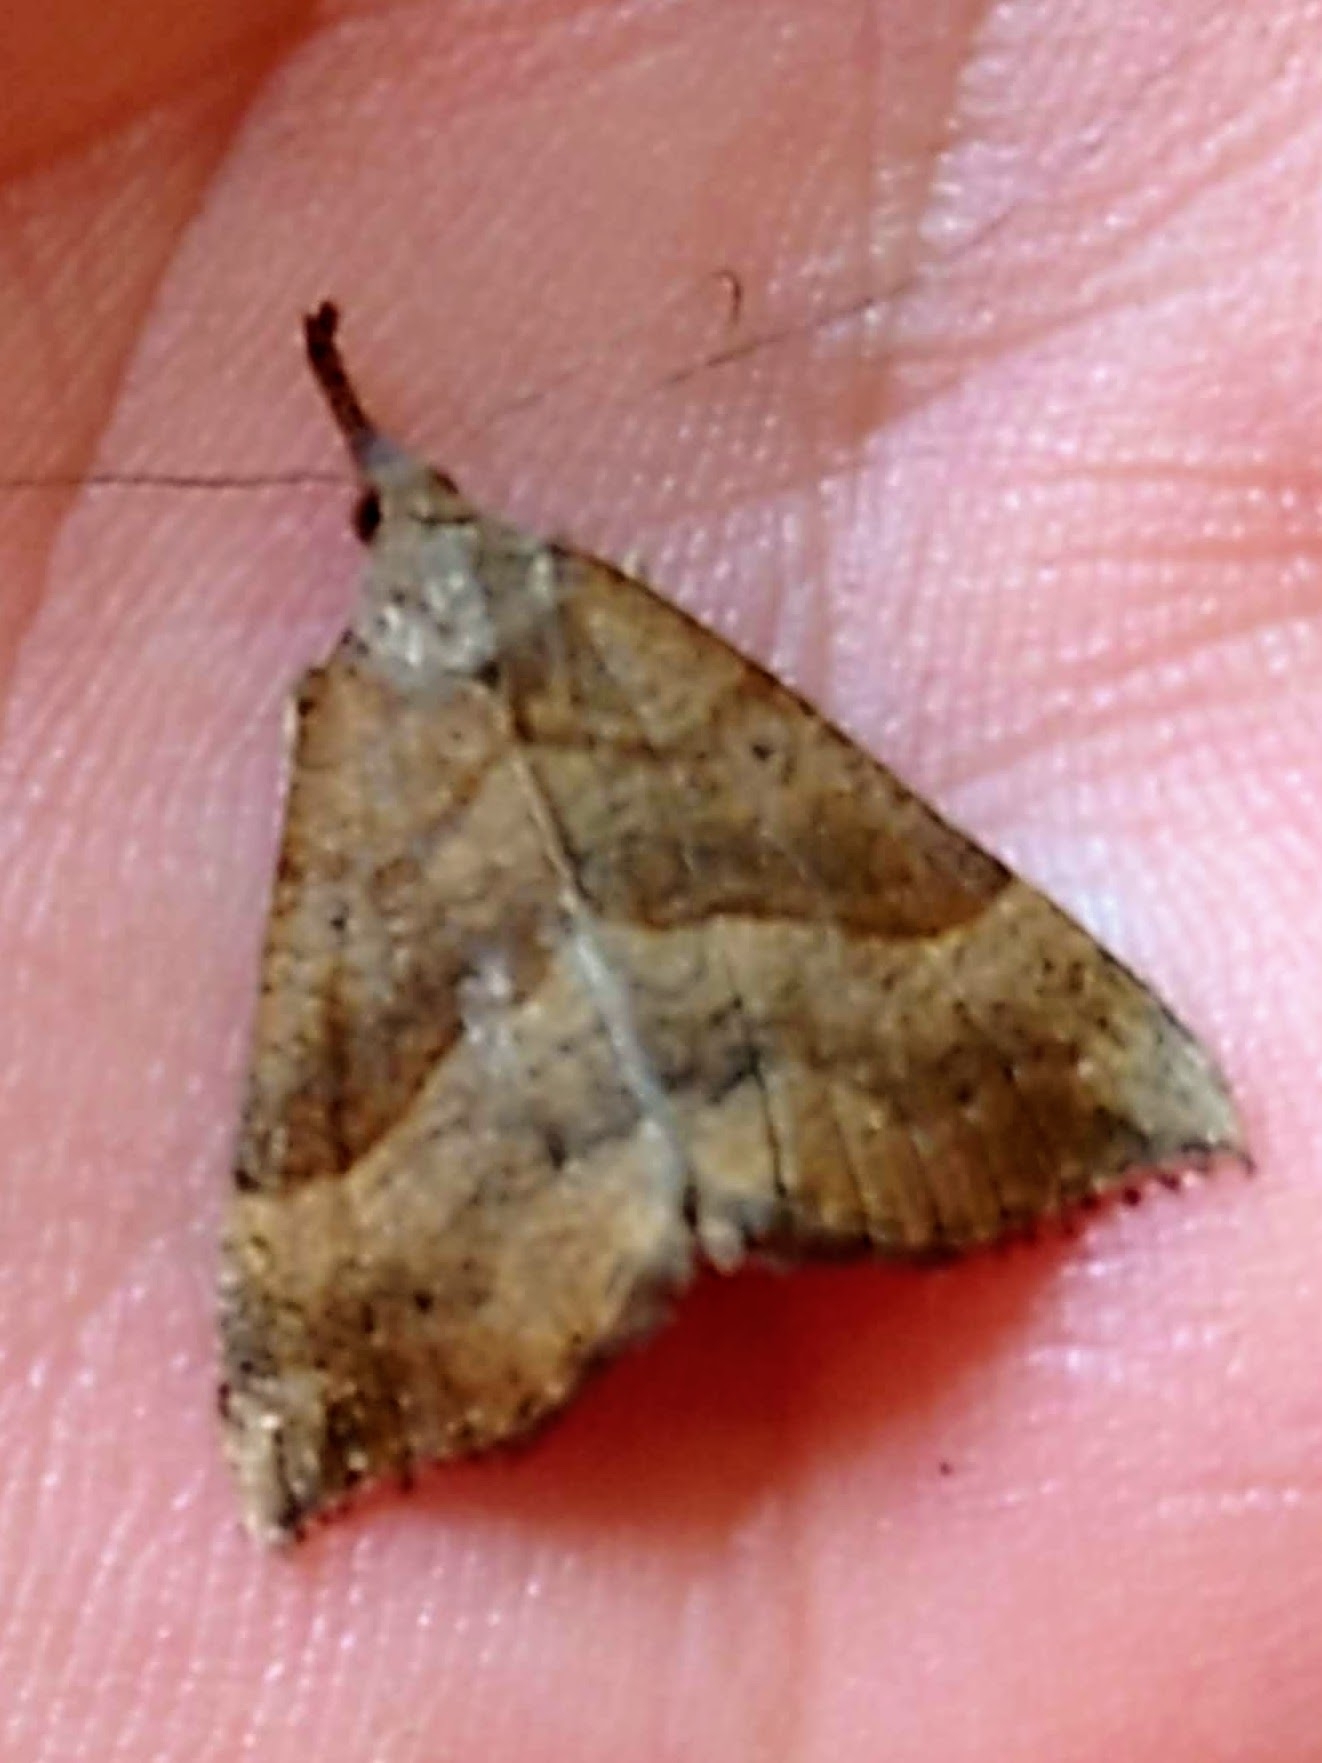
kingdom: Animalia
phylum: Arthropoda
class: Insecta
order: Lepidoptera
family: Erebidae
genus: Hypena
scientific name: Hypena proboscidalis
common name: Snout
